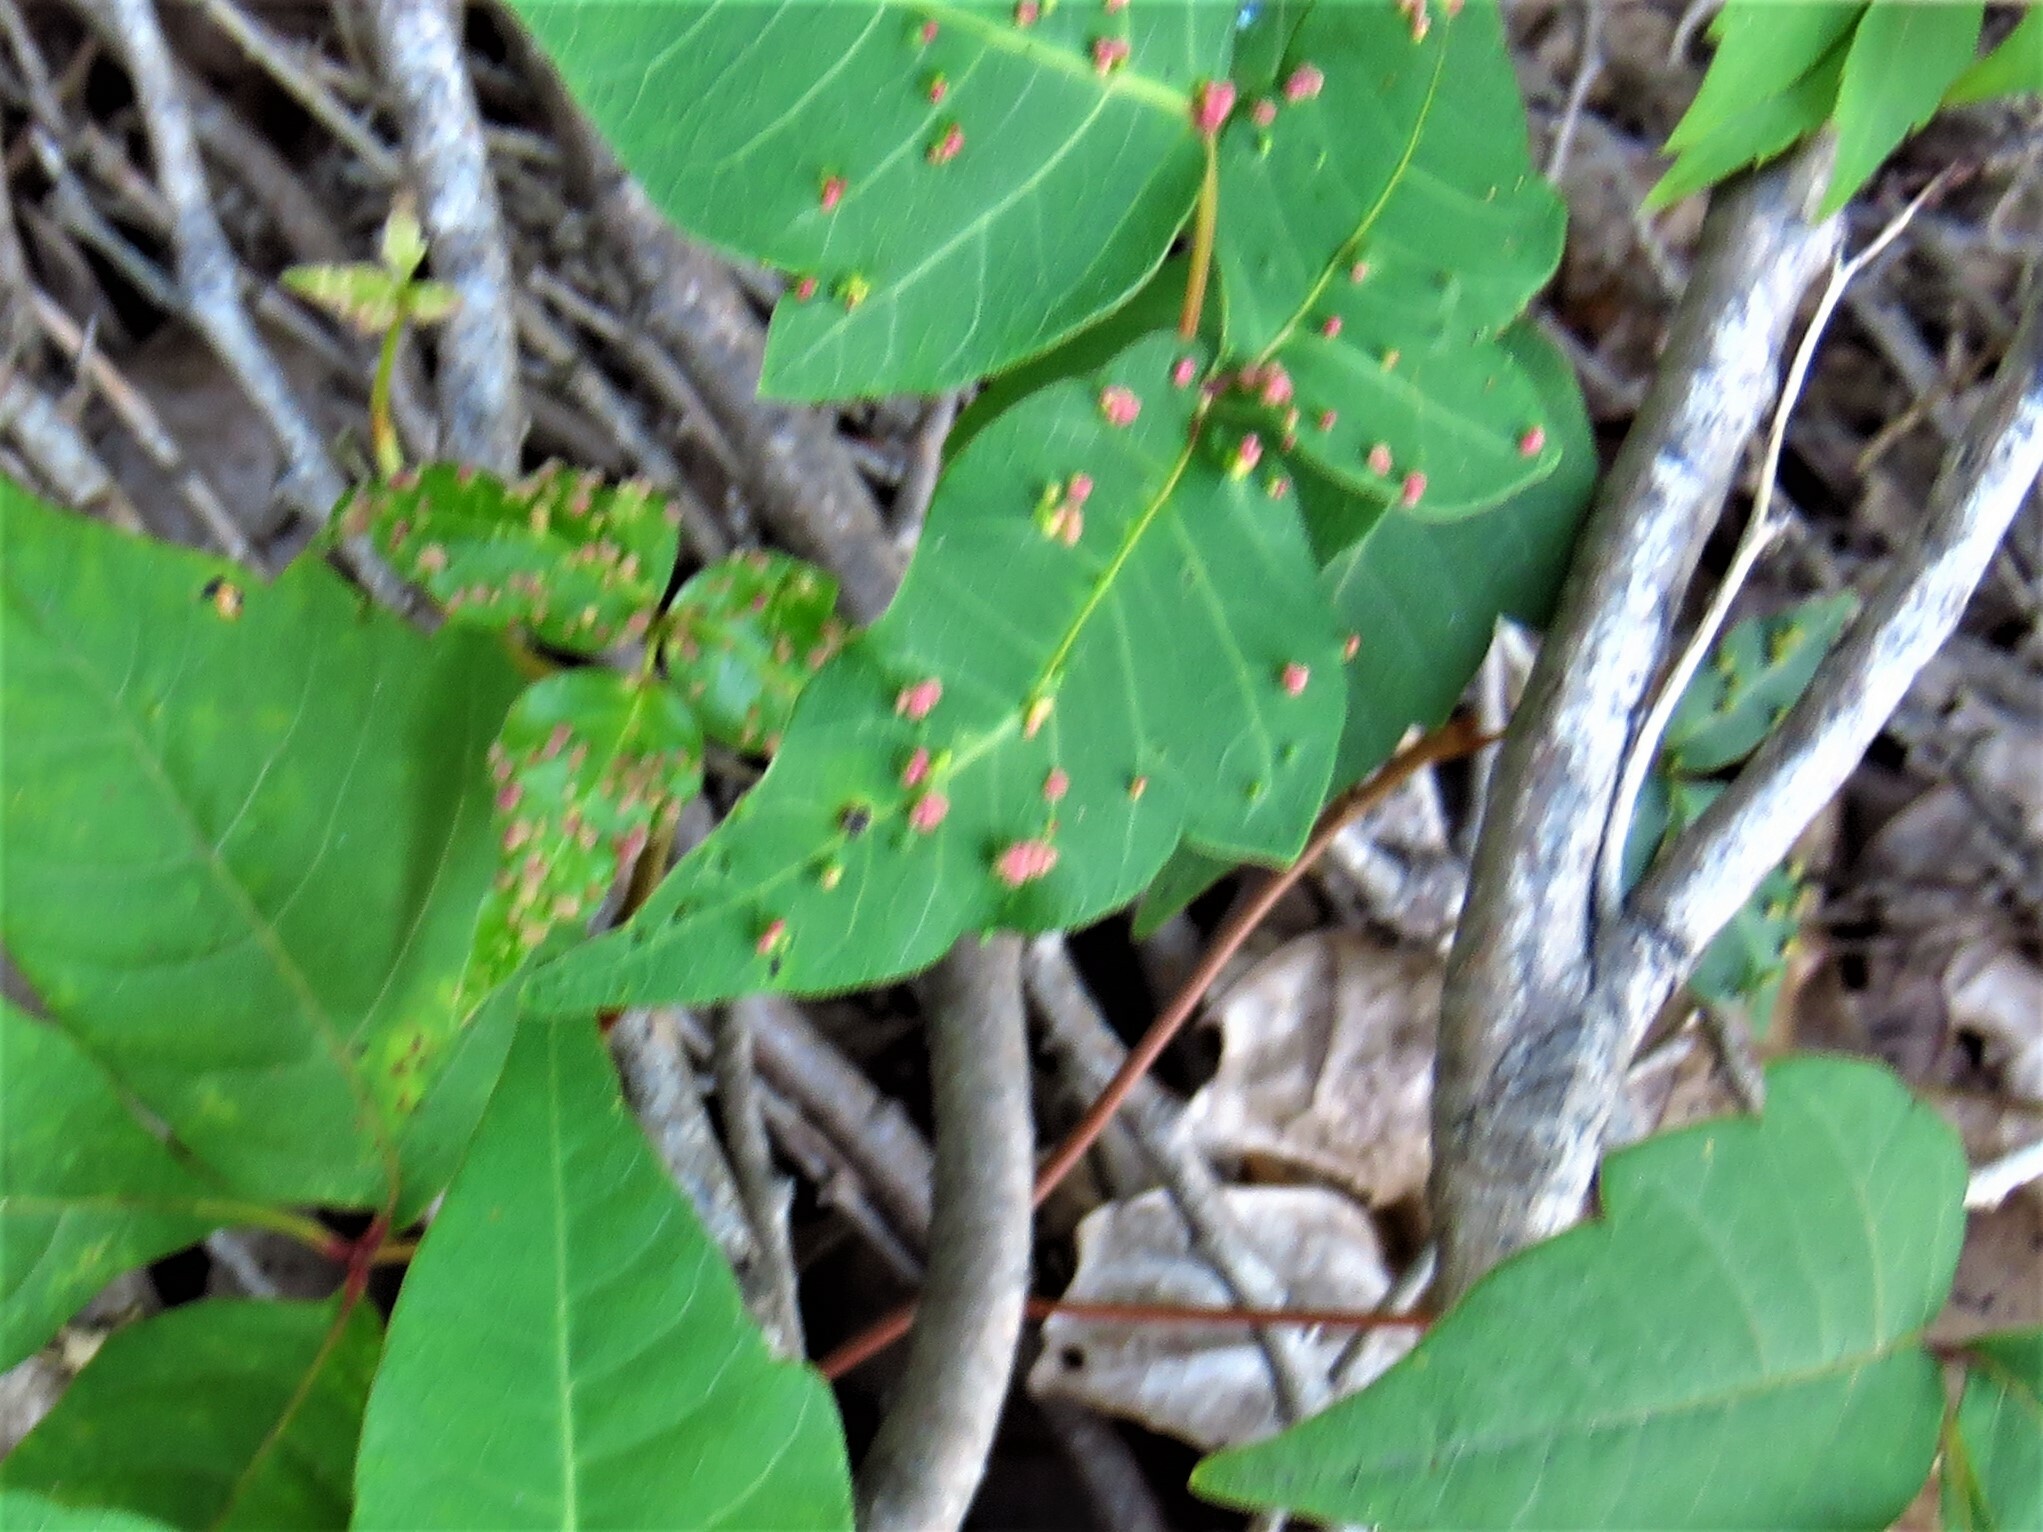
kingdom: Animalia
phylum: Arthropoda
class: Arachnida
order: Trombidiformes
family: Eriophyidae
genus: Aculops
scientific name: Aculops
